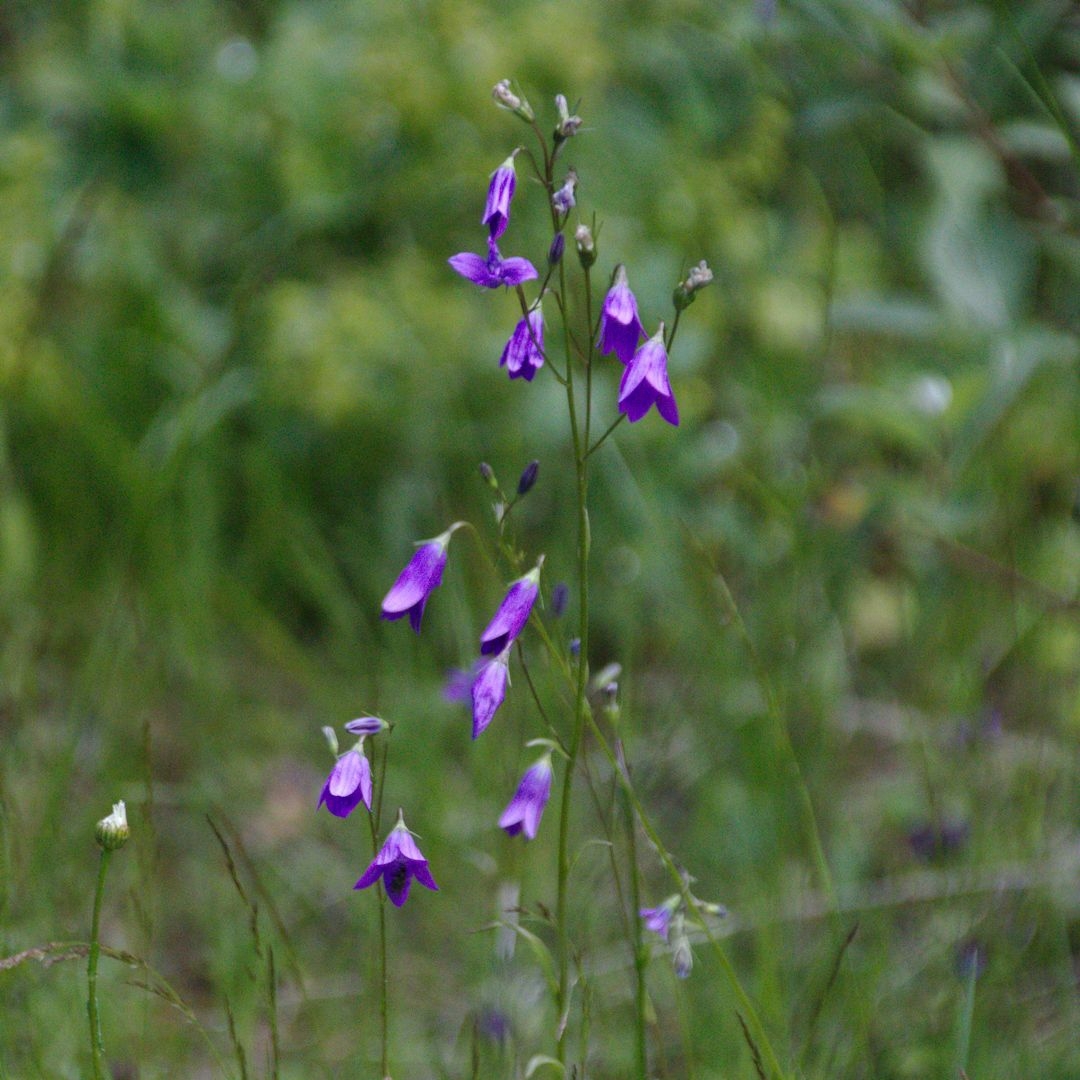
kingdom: Plantae
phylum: Tracheophyta
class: Magnoliopsida
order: Asterales
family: Campanulaceae
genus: Campanula
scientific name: Campanula patula
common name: Spreading bellflower
